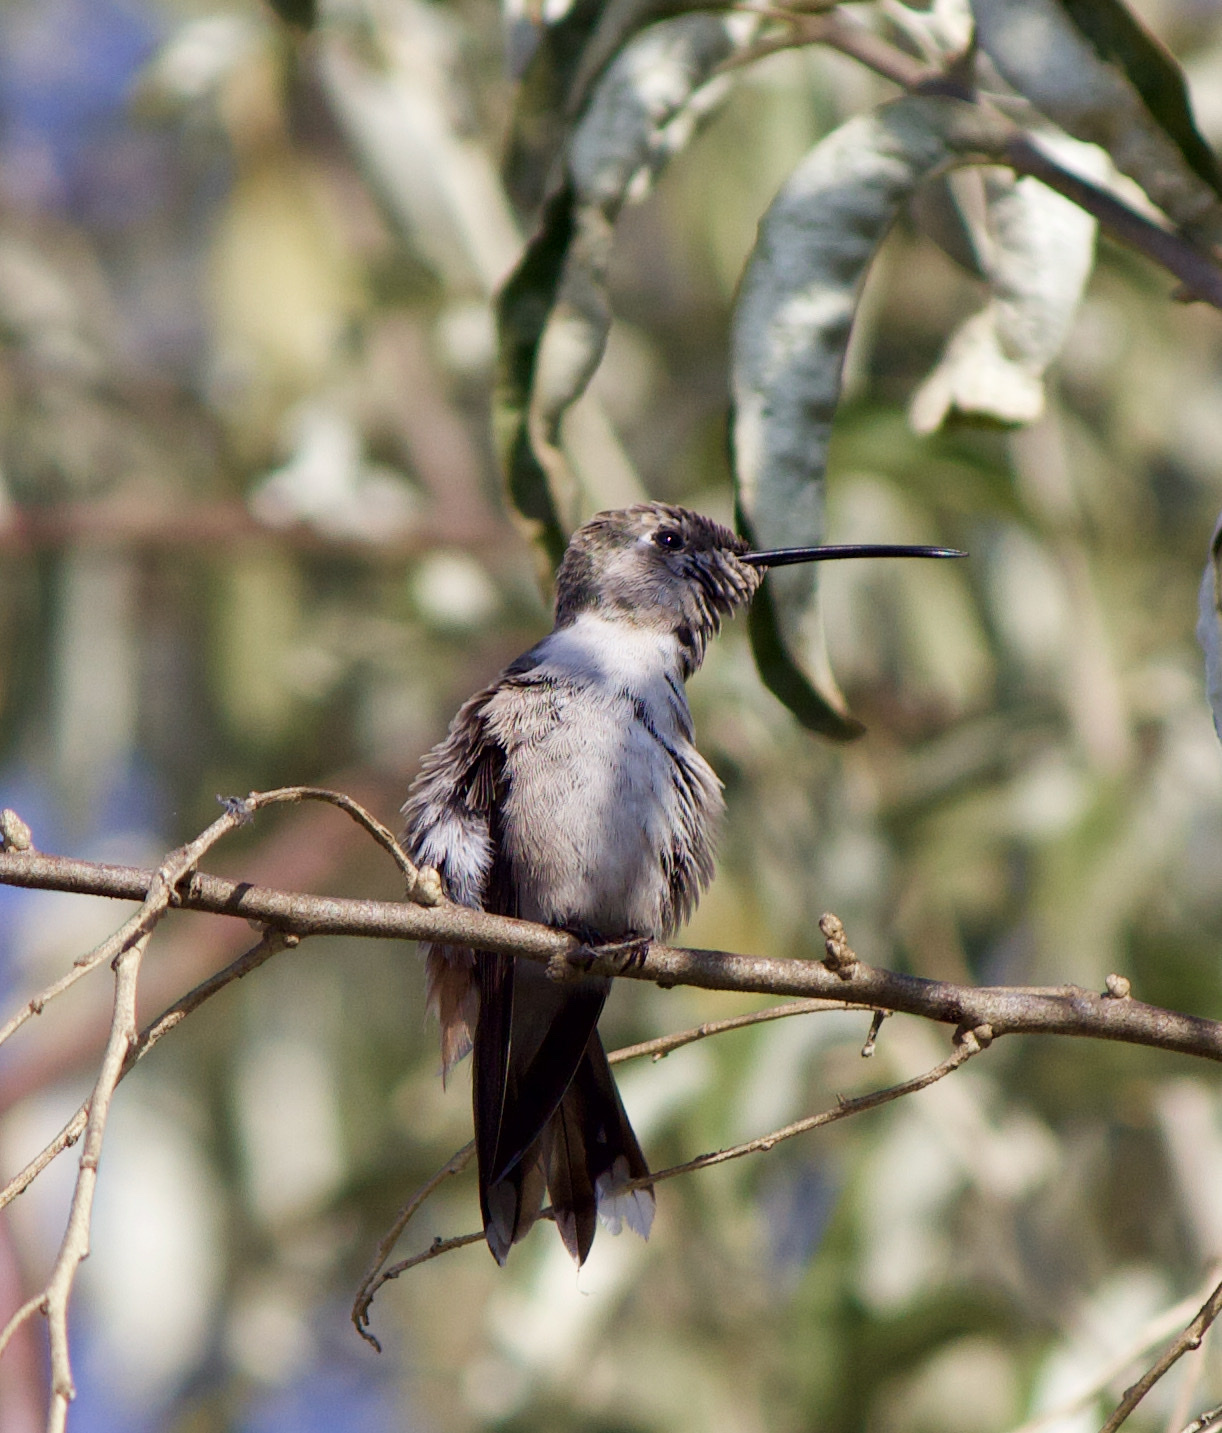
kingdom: Animalia
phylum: Chordata
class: Aves
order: Apodiformes
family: Trochilidae
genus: Rhodopis
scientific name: Rhodopis vesper
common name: Oasis hummingbird
